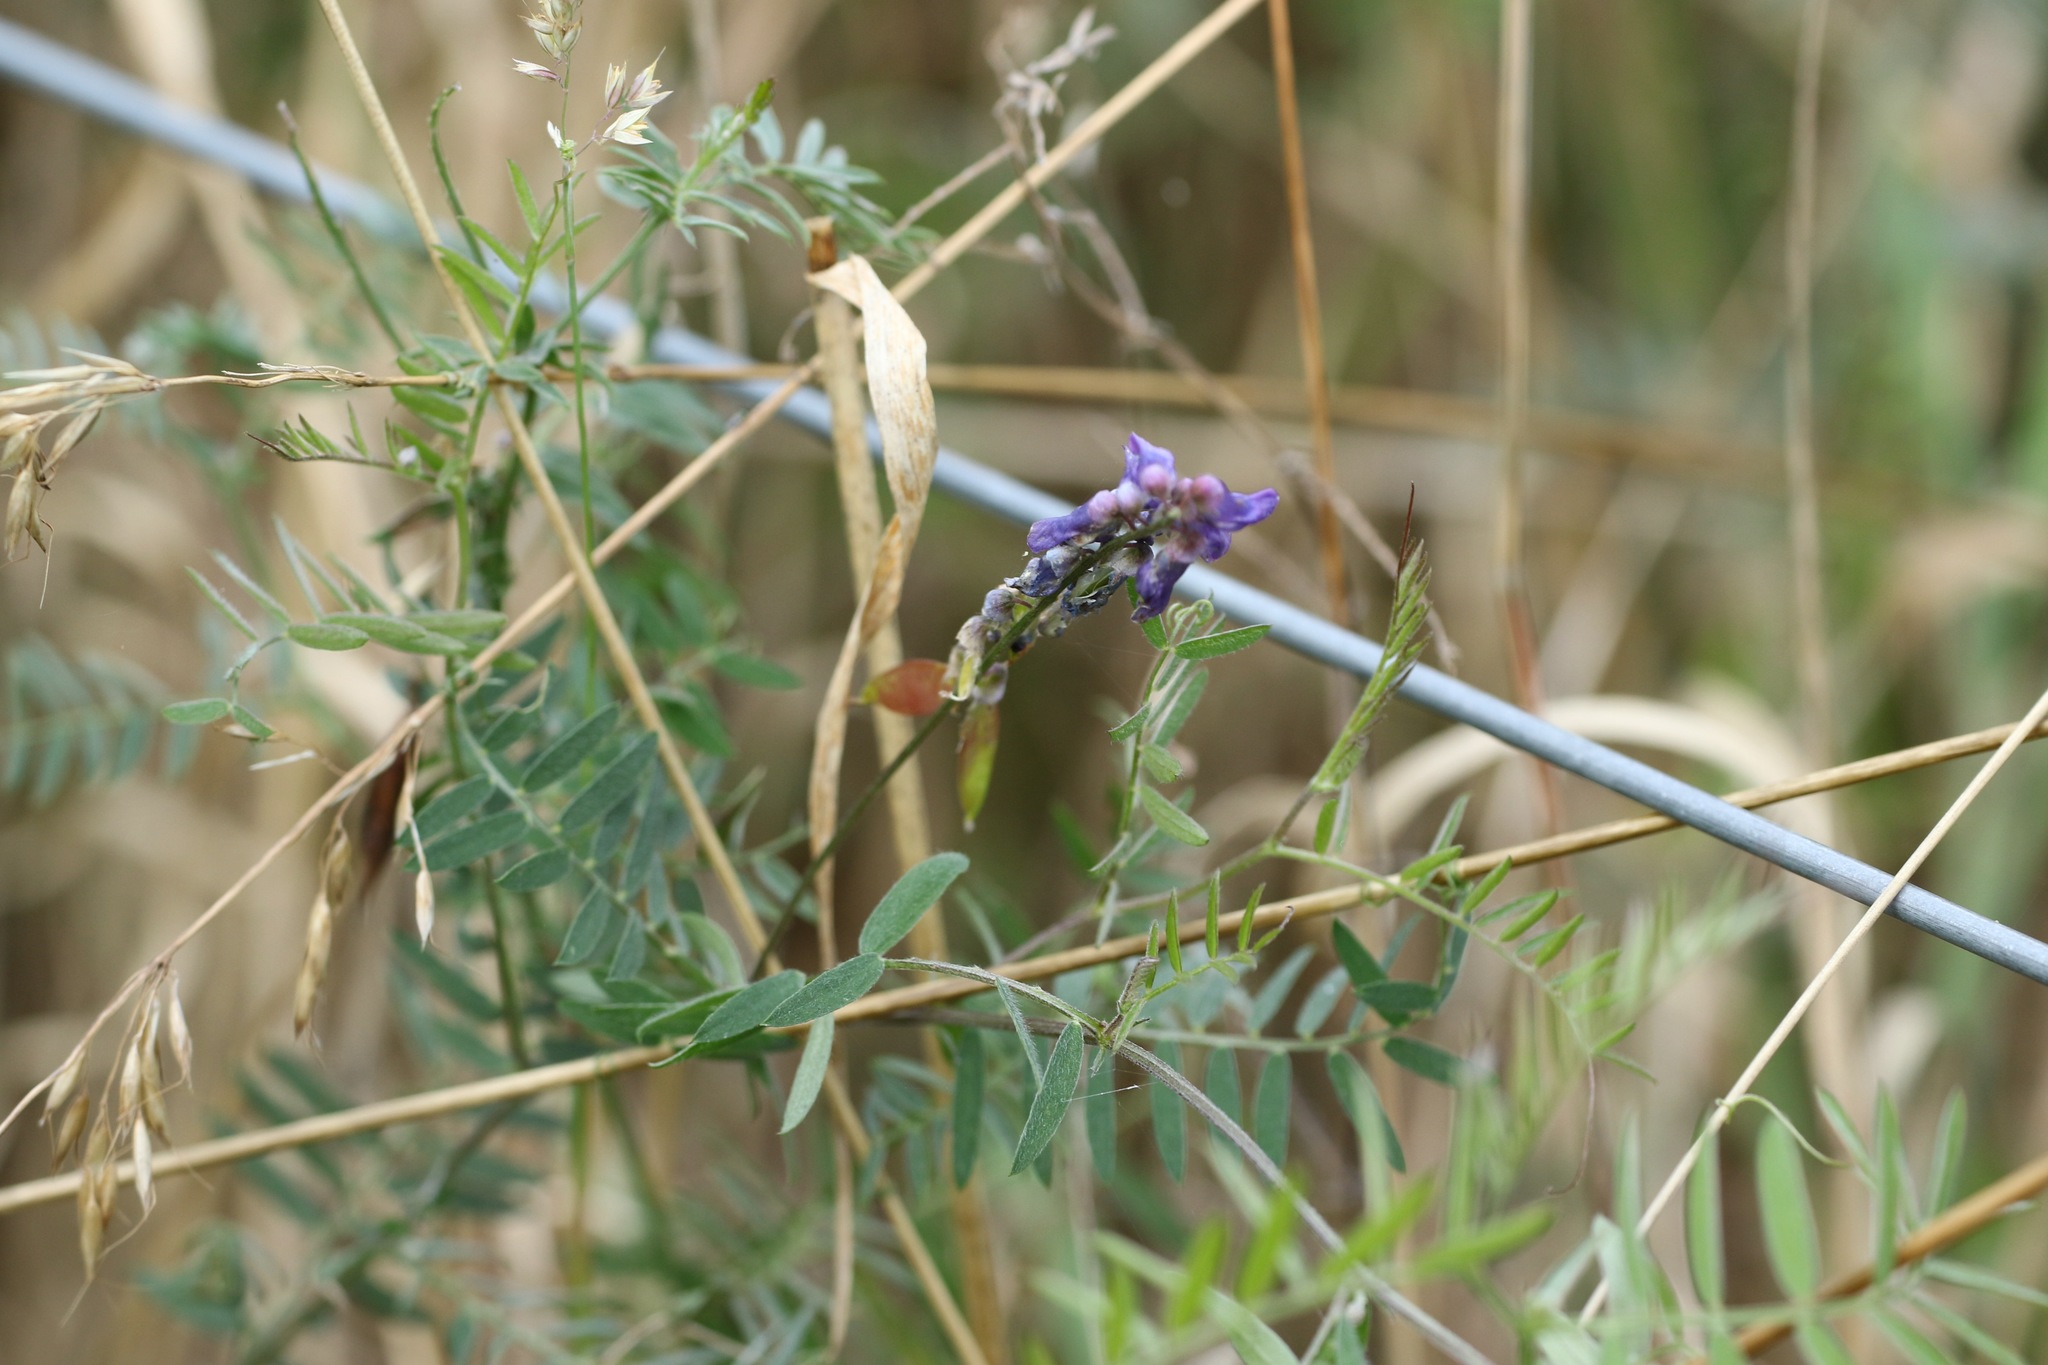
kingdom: Plantae
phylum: Tracheophyta
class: Magnoliopsida
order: Fabales
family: Fabaceae
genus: Vicia
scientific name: Vicia cracca
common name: Bird vetch
